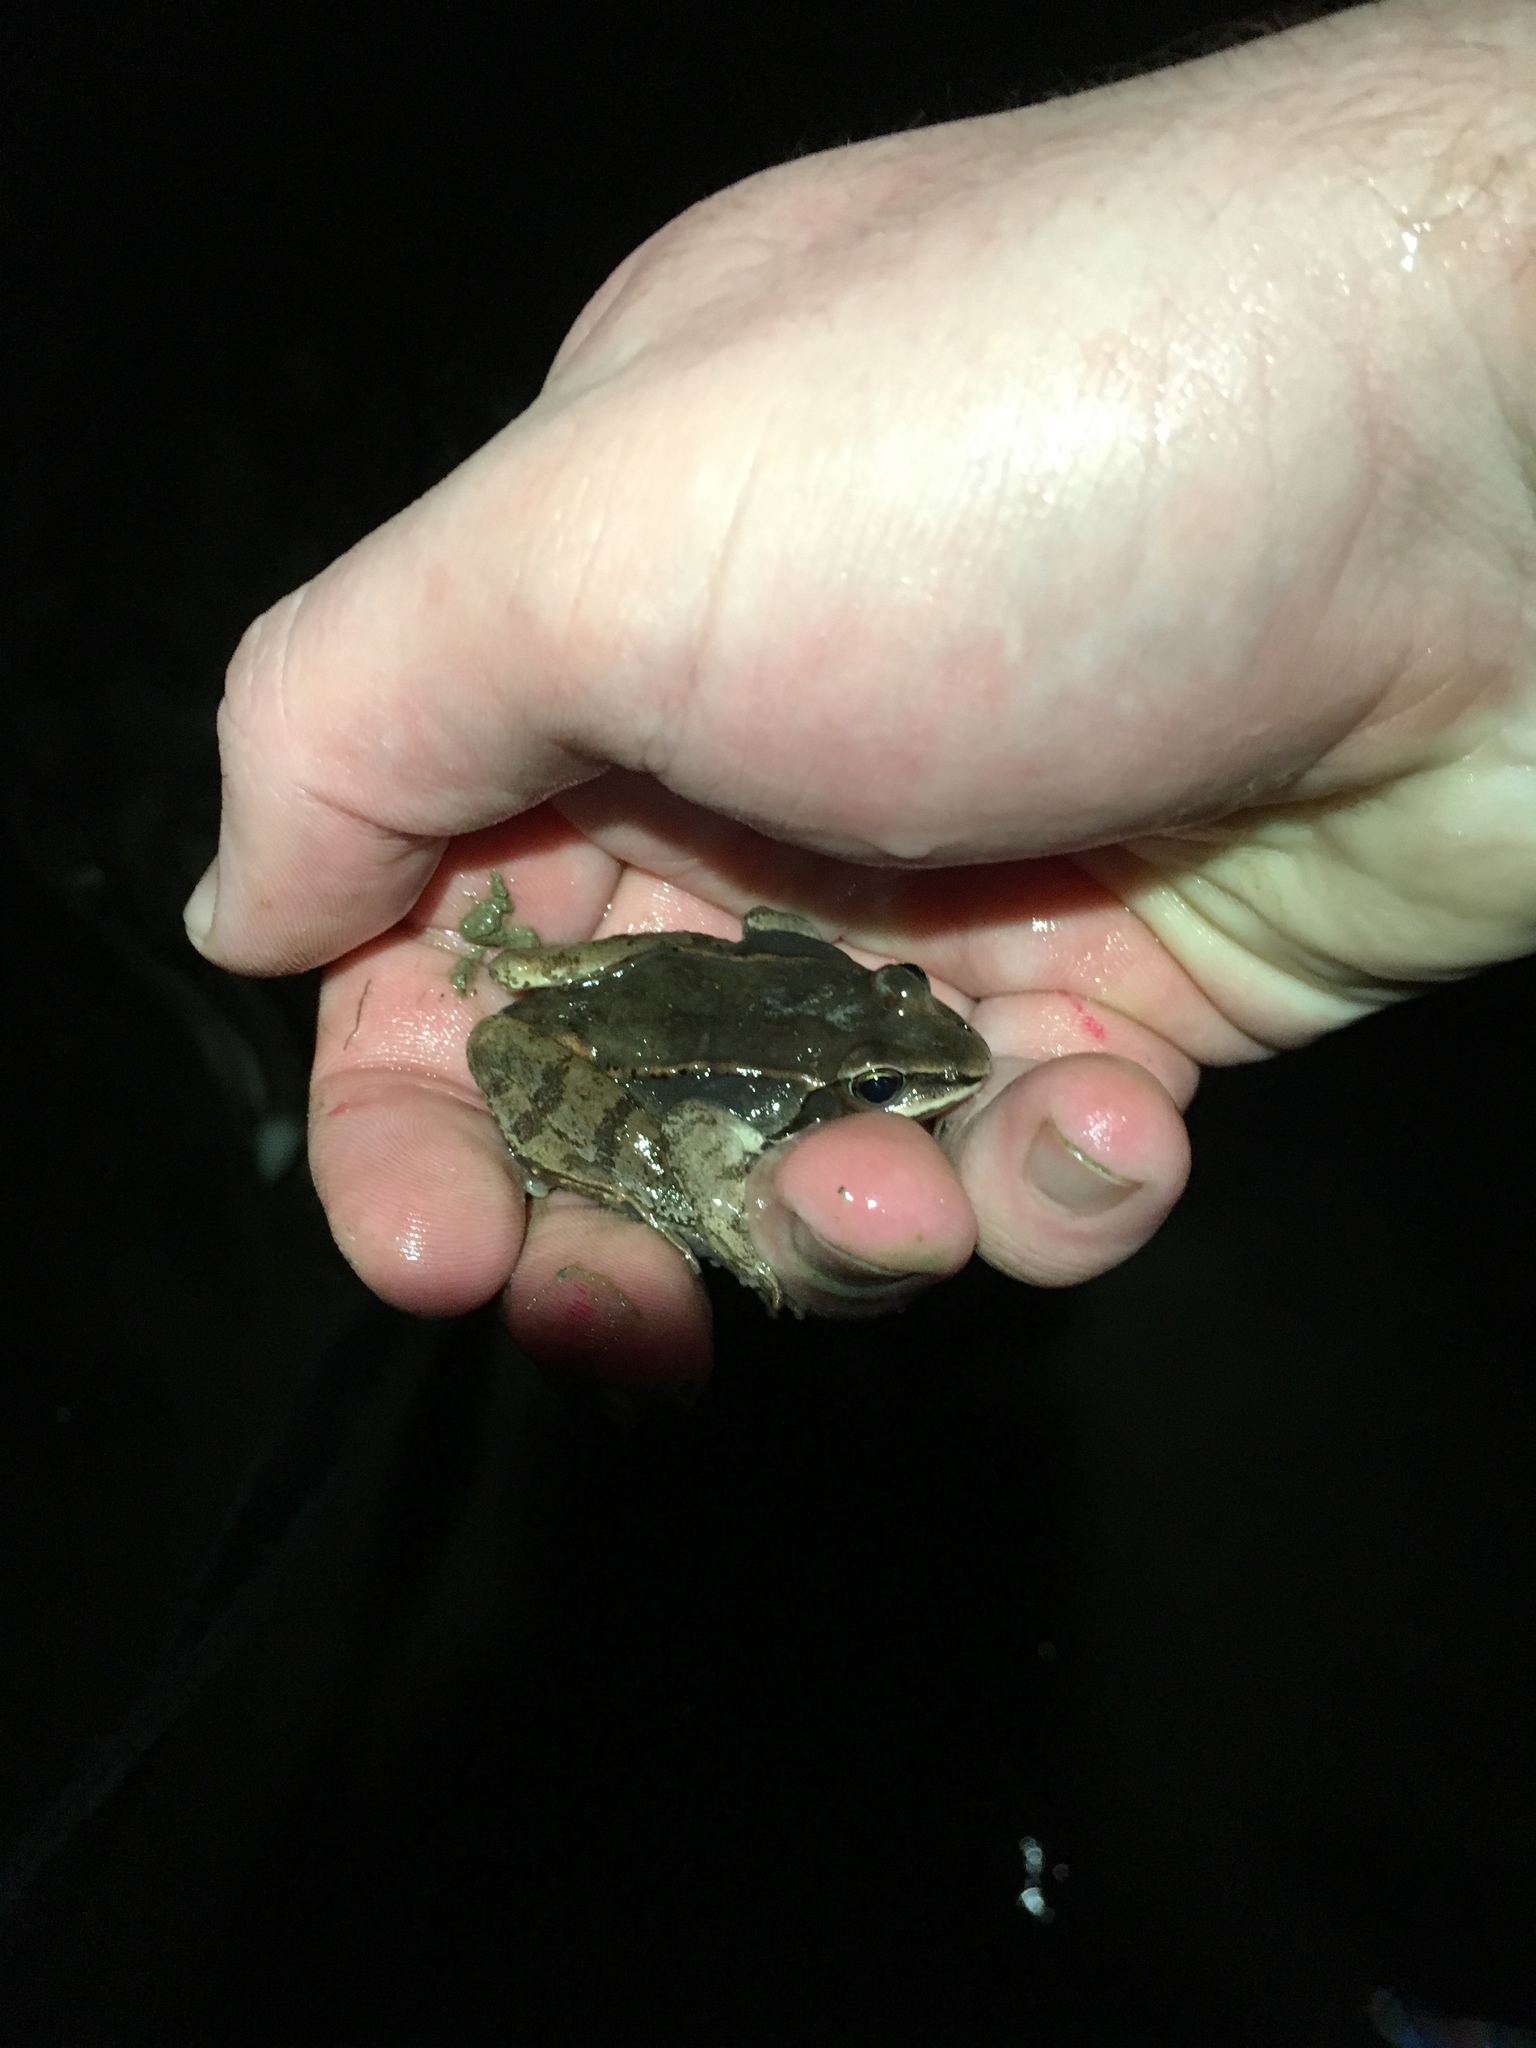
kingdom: Animalia
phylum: Chordata
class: Amphibia
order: Anura
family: Ranidae
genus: Lithobates
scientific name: Lithobates sylvaticus
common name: Wood frog
